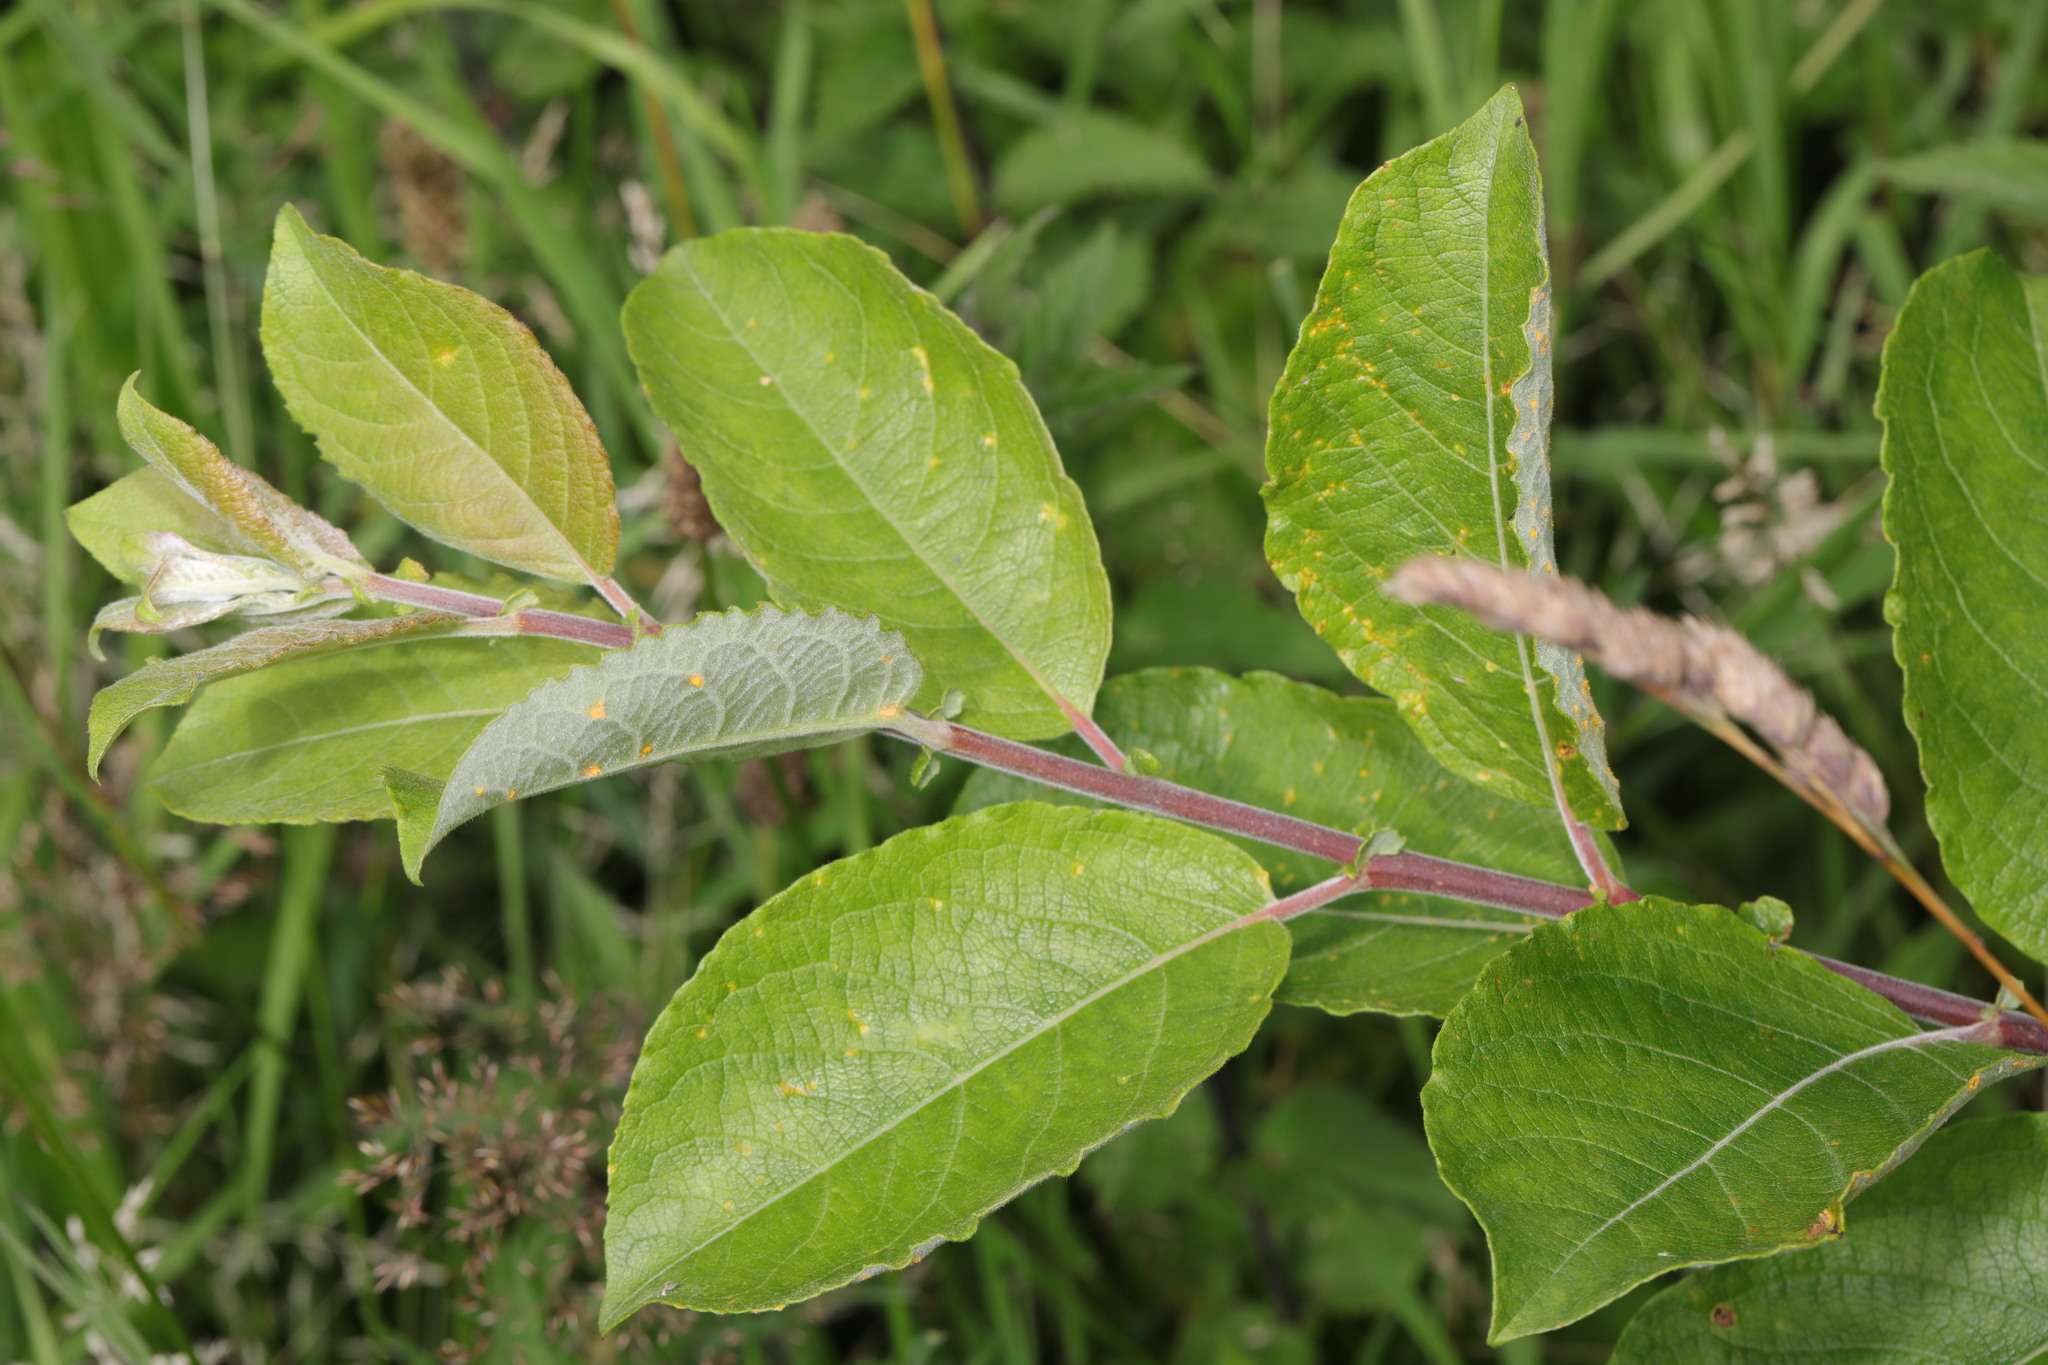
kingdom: Plantae
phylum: Tracheophyta
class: Magnoliopsida
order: Malpighiales
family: Salicaceae
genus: Salix
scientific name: Salix caprea
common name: Goat willow
